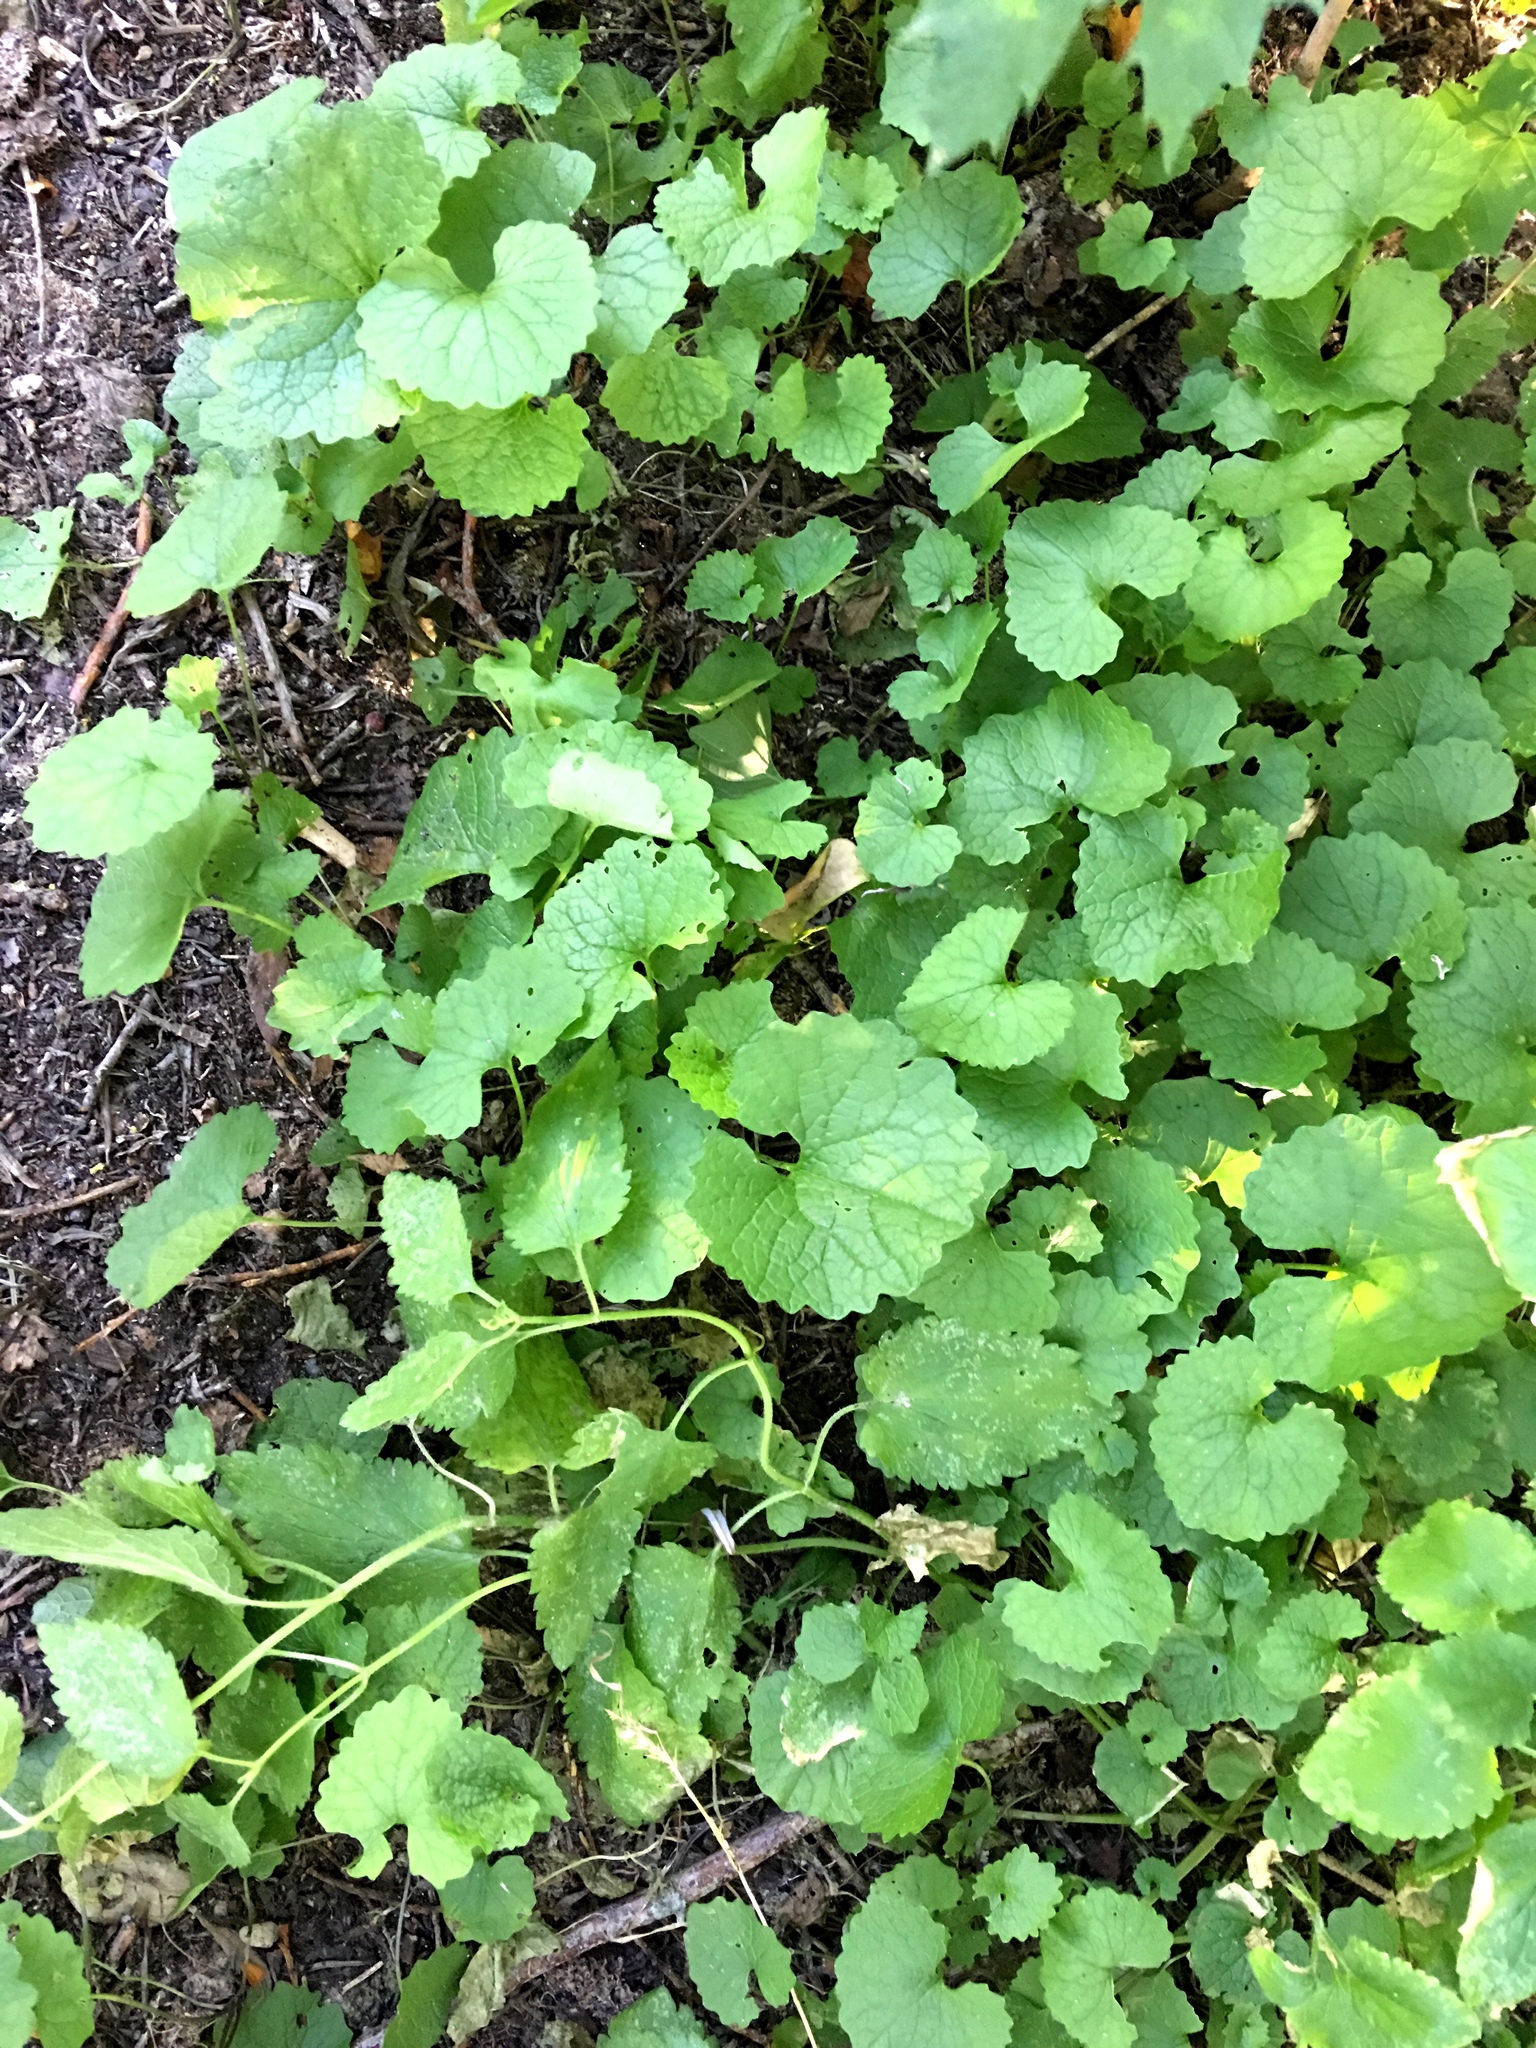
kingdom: Plantae
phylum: Tracheophyta
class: Magnoliopsida
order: Brassicales
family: Brassicaceae
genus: Alliaria
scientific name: Alliaria petiolata
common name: Garlic mustard
